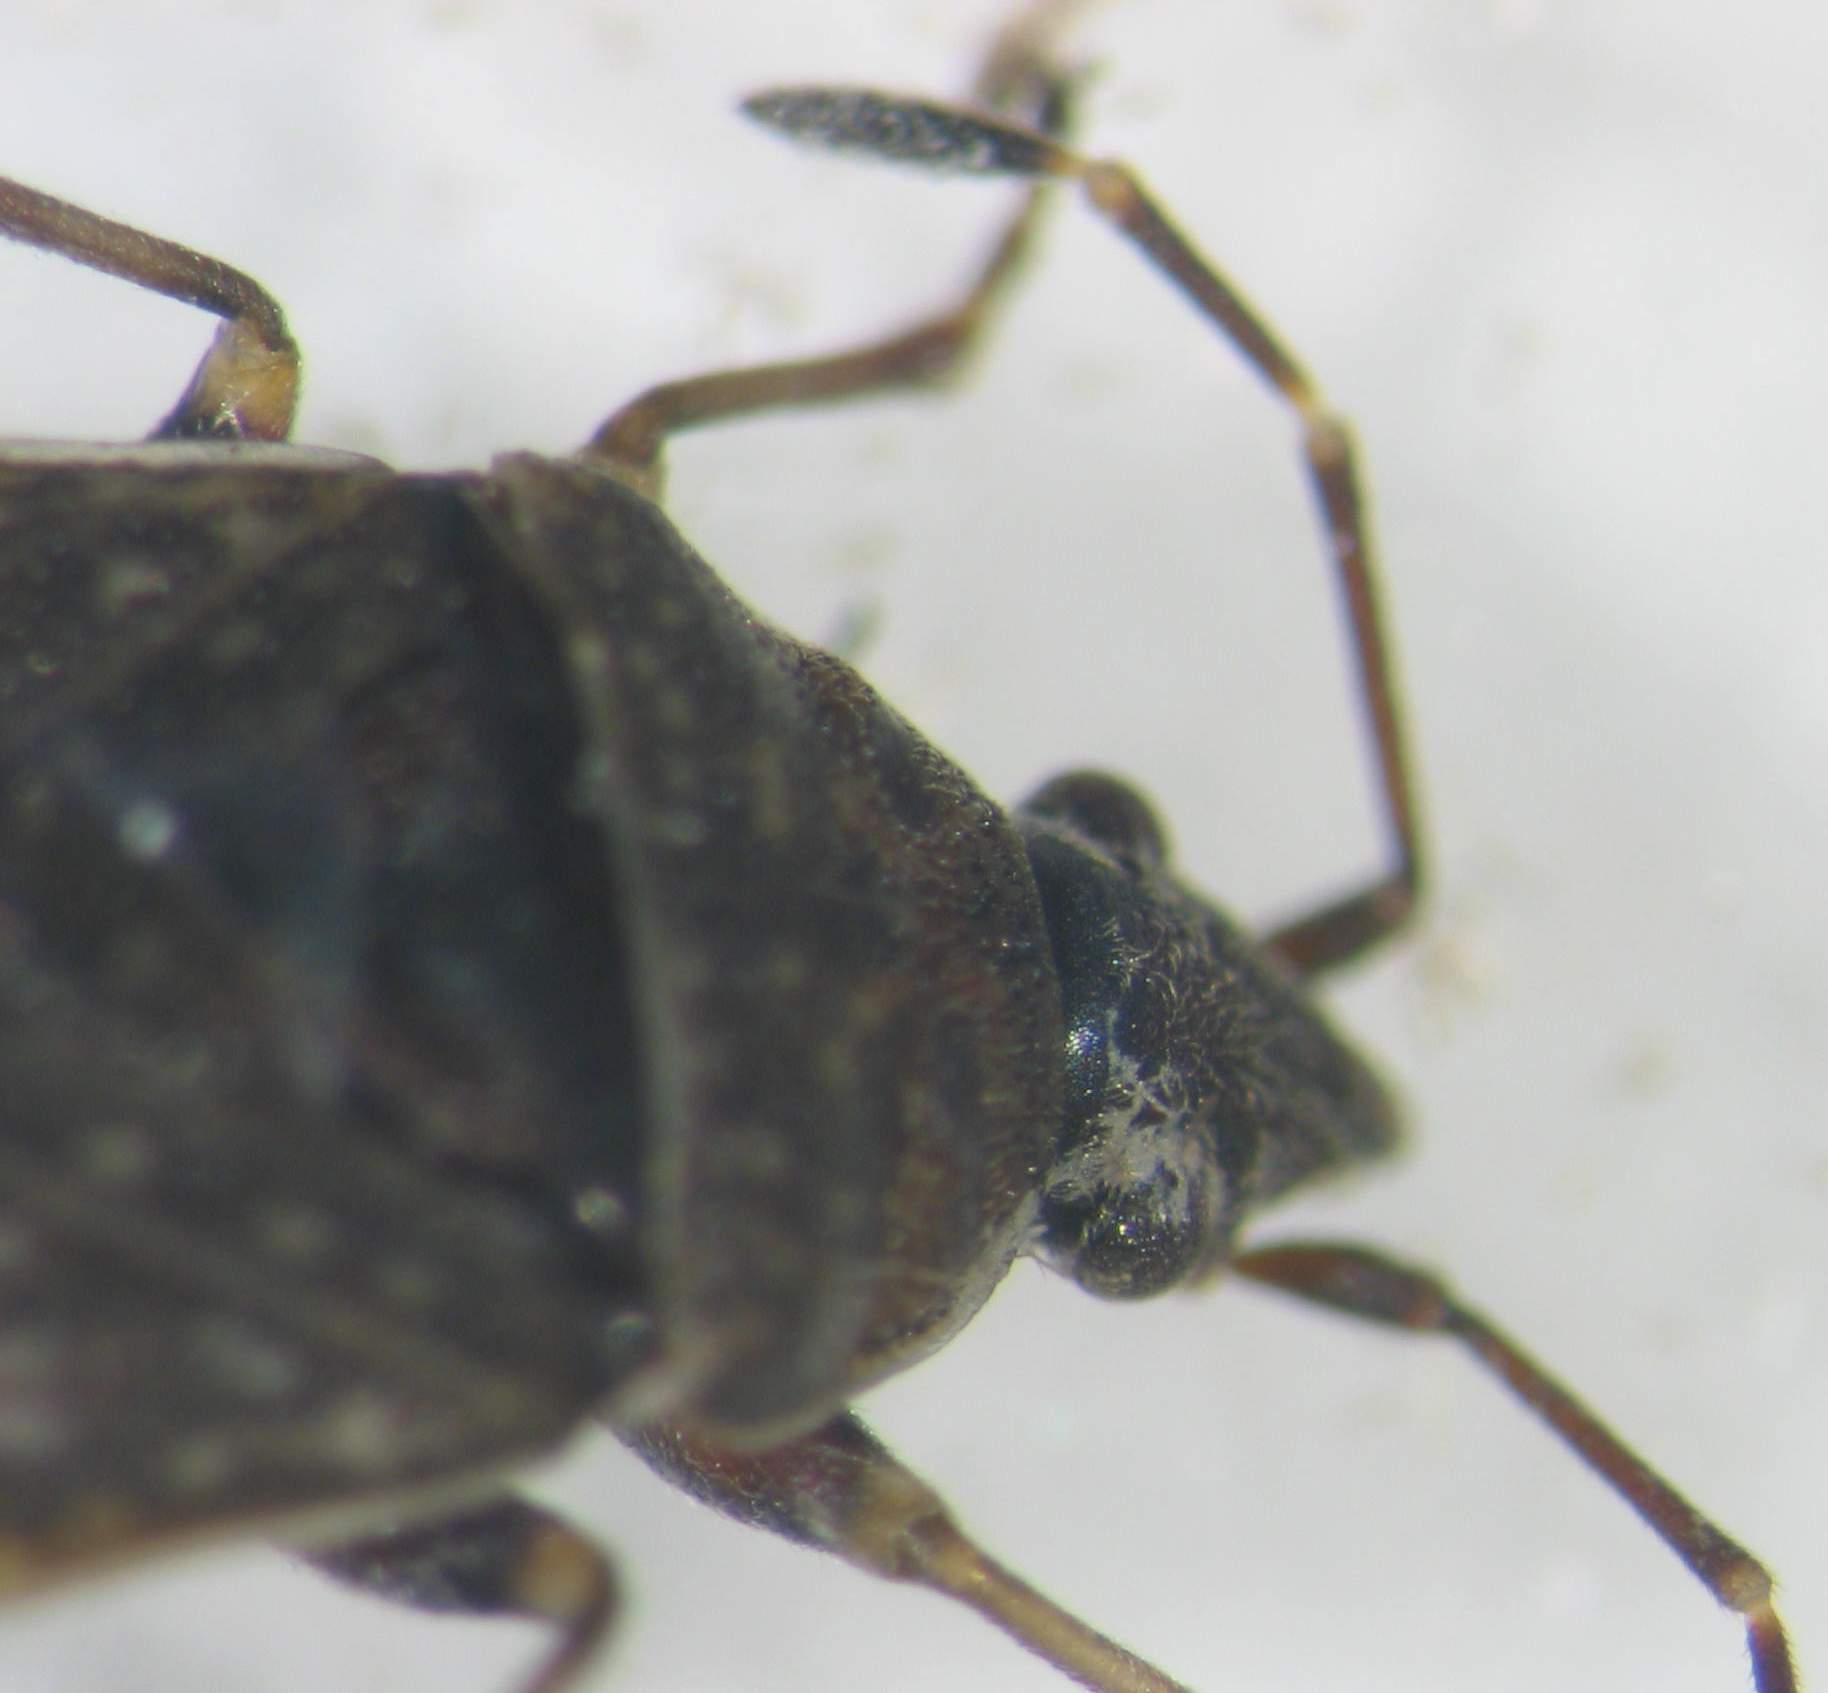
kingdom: Animalia
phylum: Arthropoda
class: Insecta
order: Hemiptera
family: Lygaeidae
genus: Koscocrompus
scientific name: Koscocrompus obscurus
